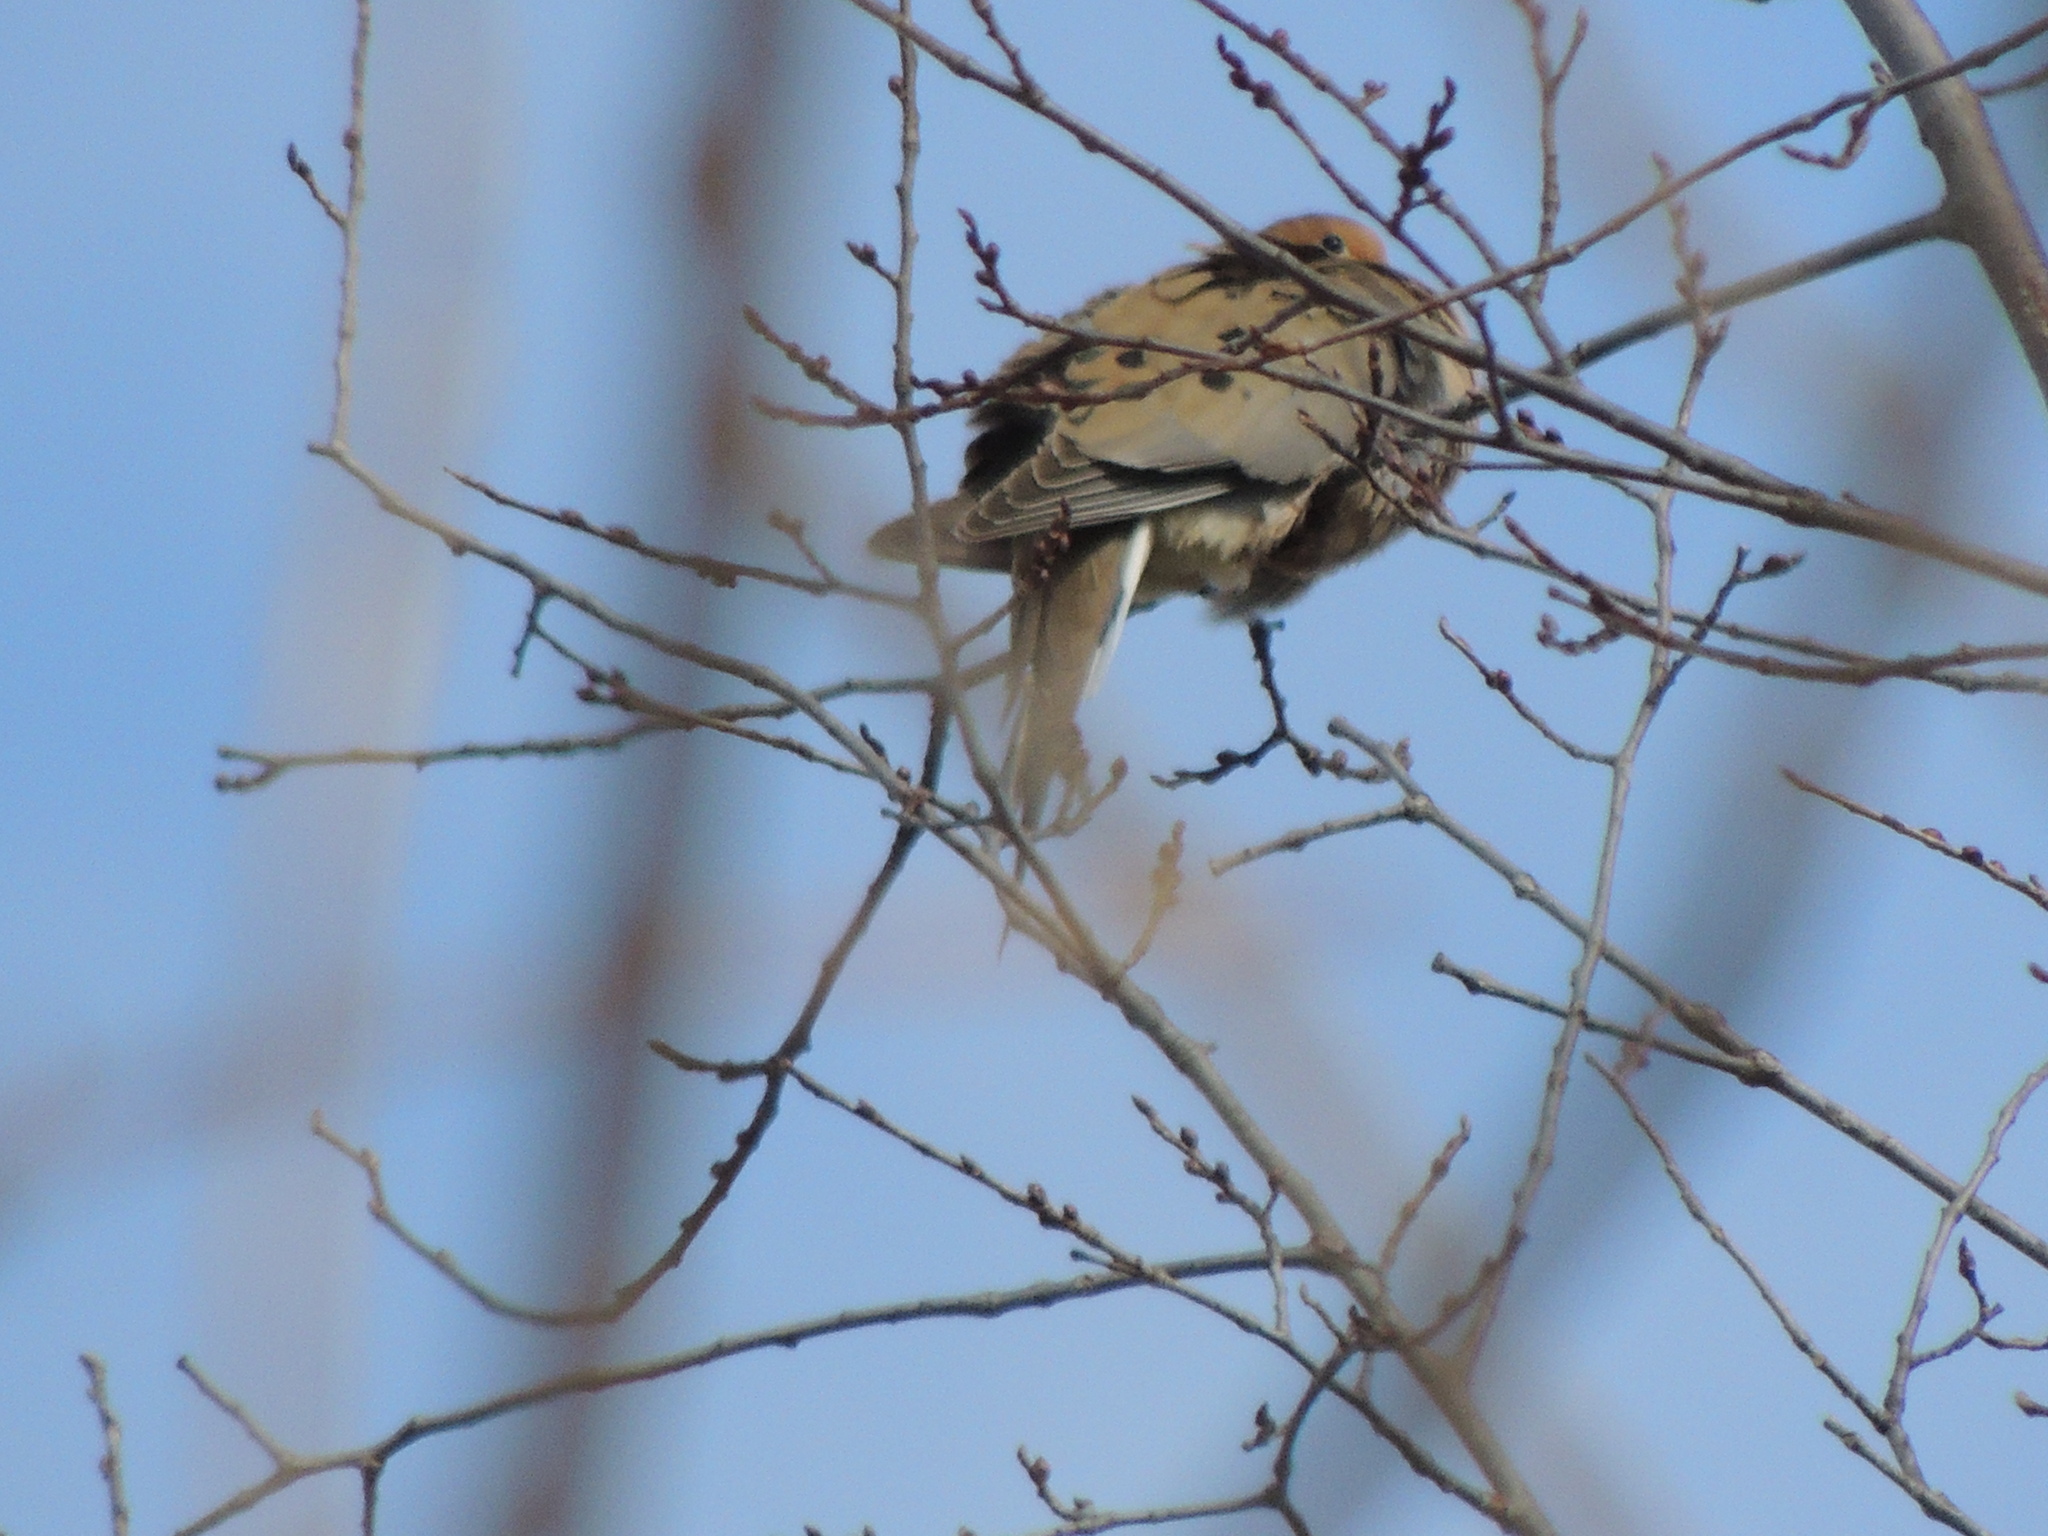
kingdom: Animalia
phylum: Chordata
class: Aves
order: Columbiformes
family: Columbidae
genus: Zenaida
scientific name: Zenaida macroura
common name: Mourning dove
